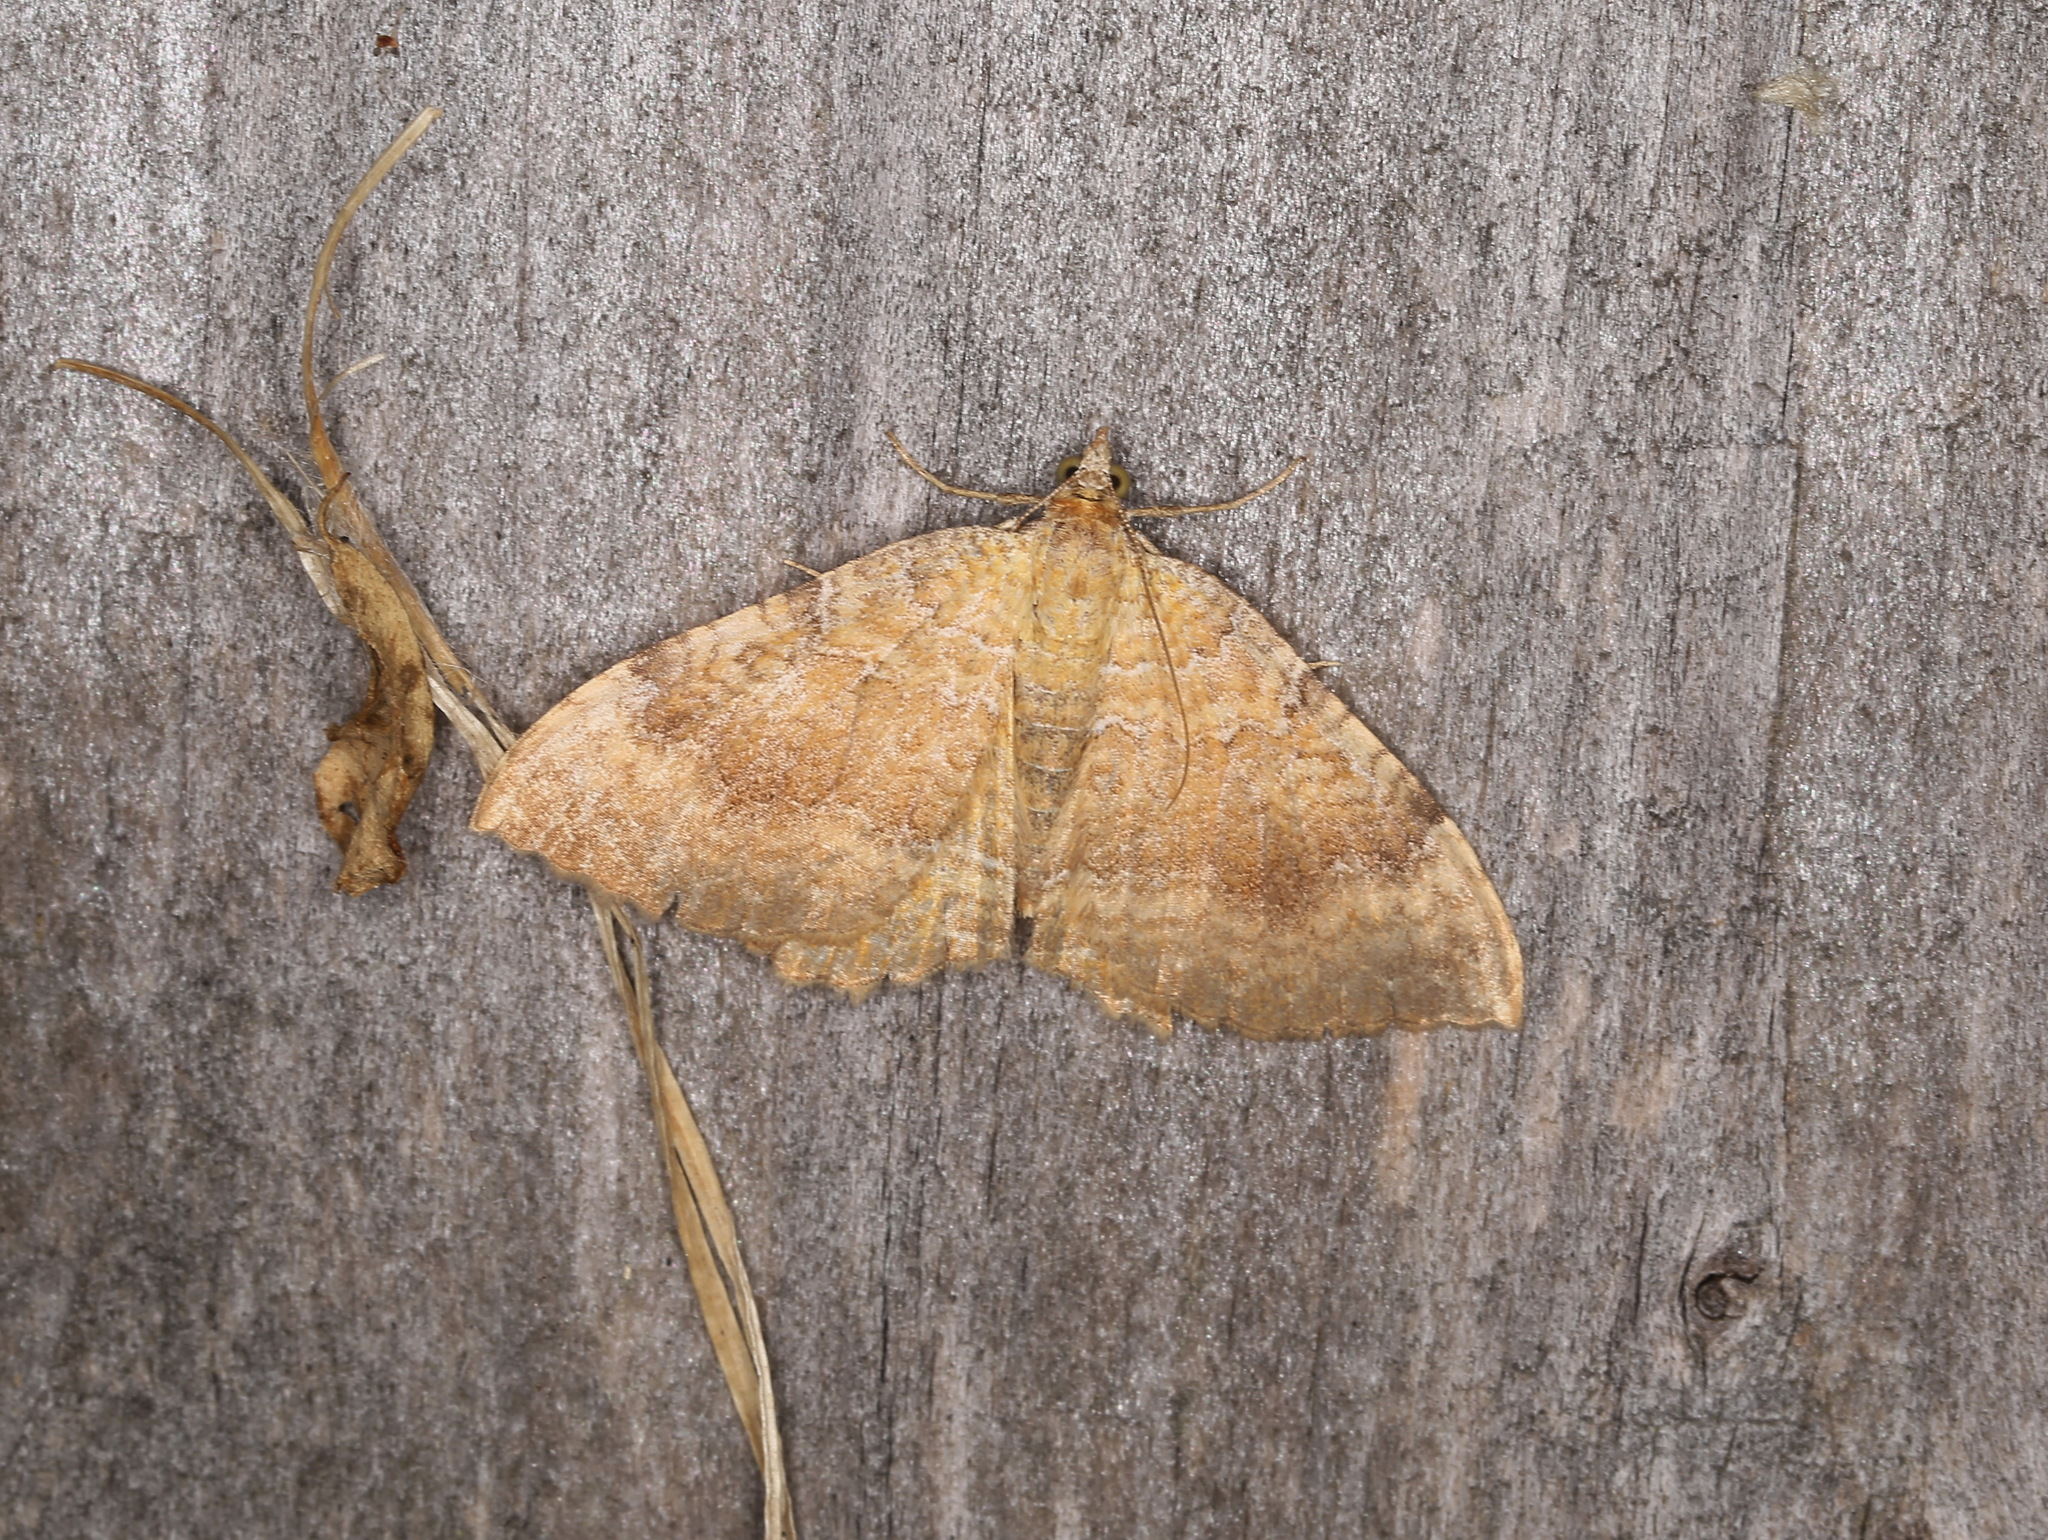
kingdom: Animalia
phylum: Arthropoda
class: Insecta
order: Lepidoptera
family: Geometridae
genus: Camptogramma
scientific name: Camptogramma bilineata
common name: Yellow shell
